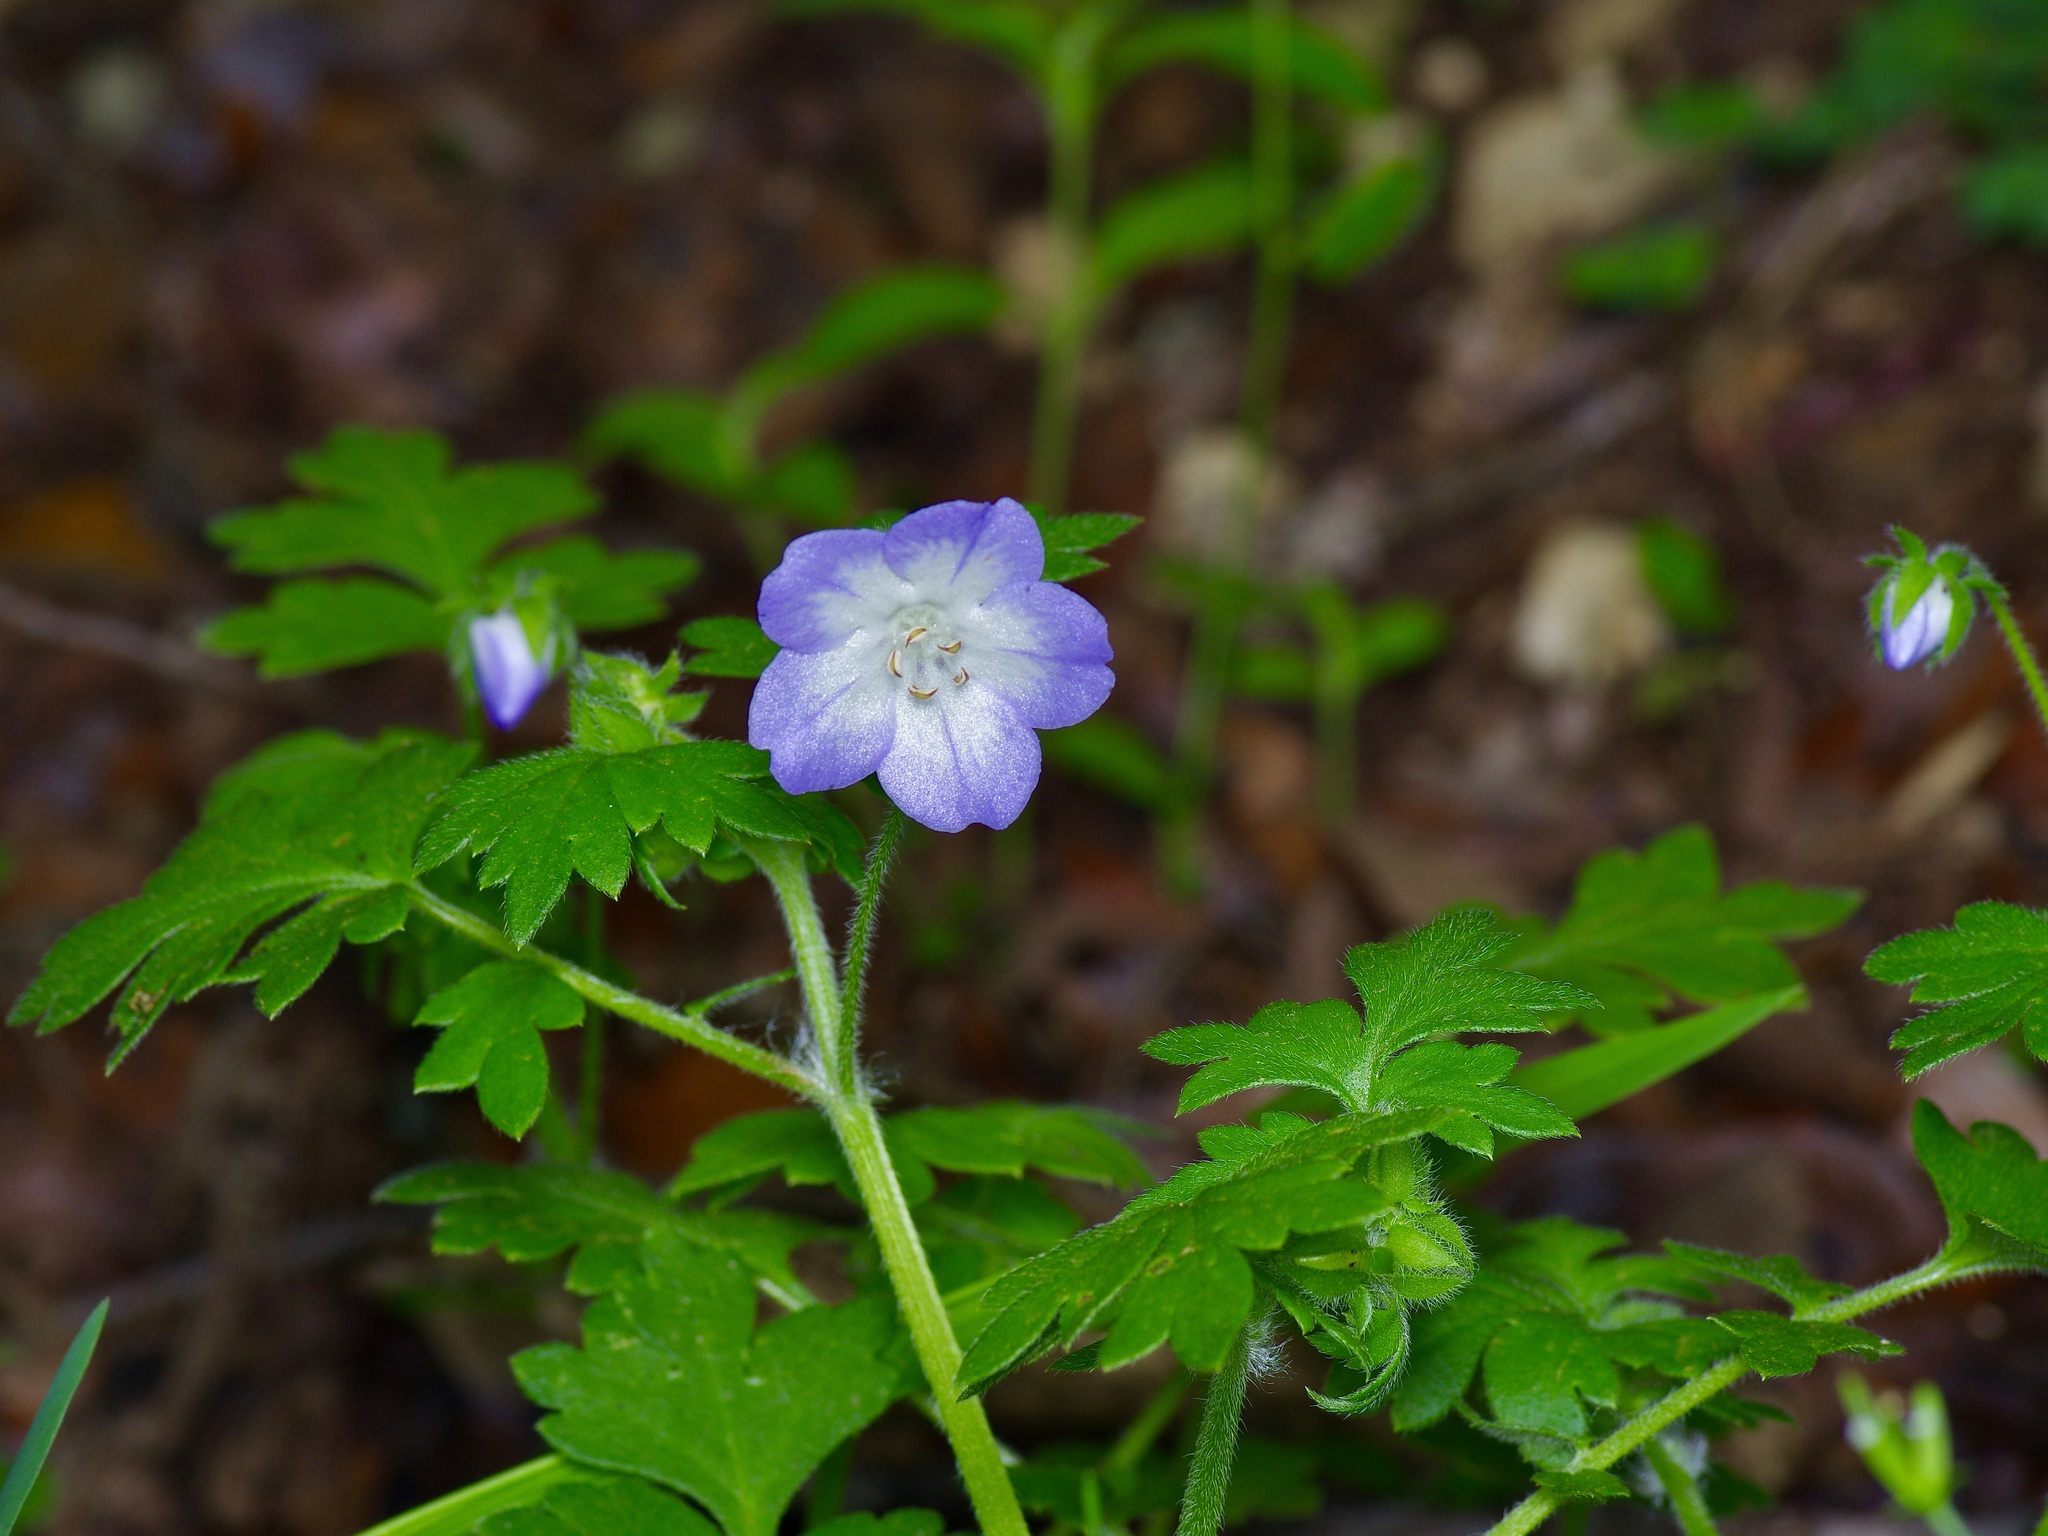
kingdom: Plantae
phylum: Tracheophyta
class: Magnoliopsida
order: Boraginales
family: Hydrophyllaceae
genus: Nemophila
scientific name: Nemophila phacelioides
